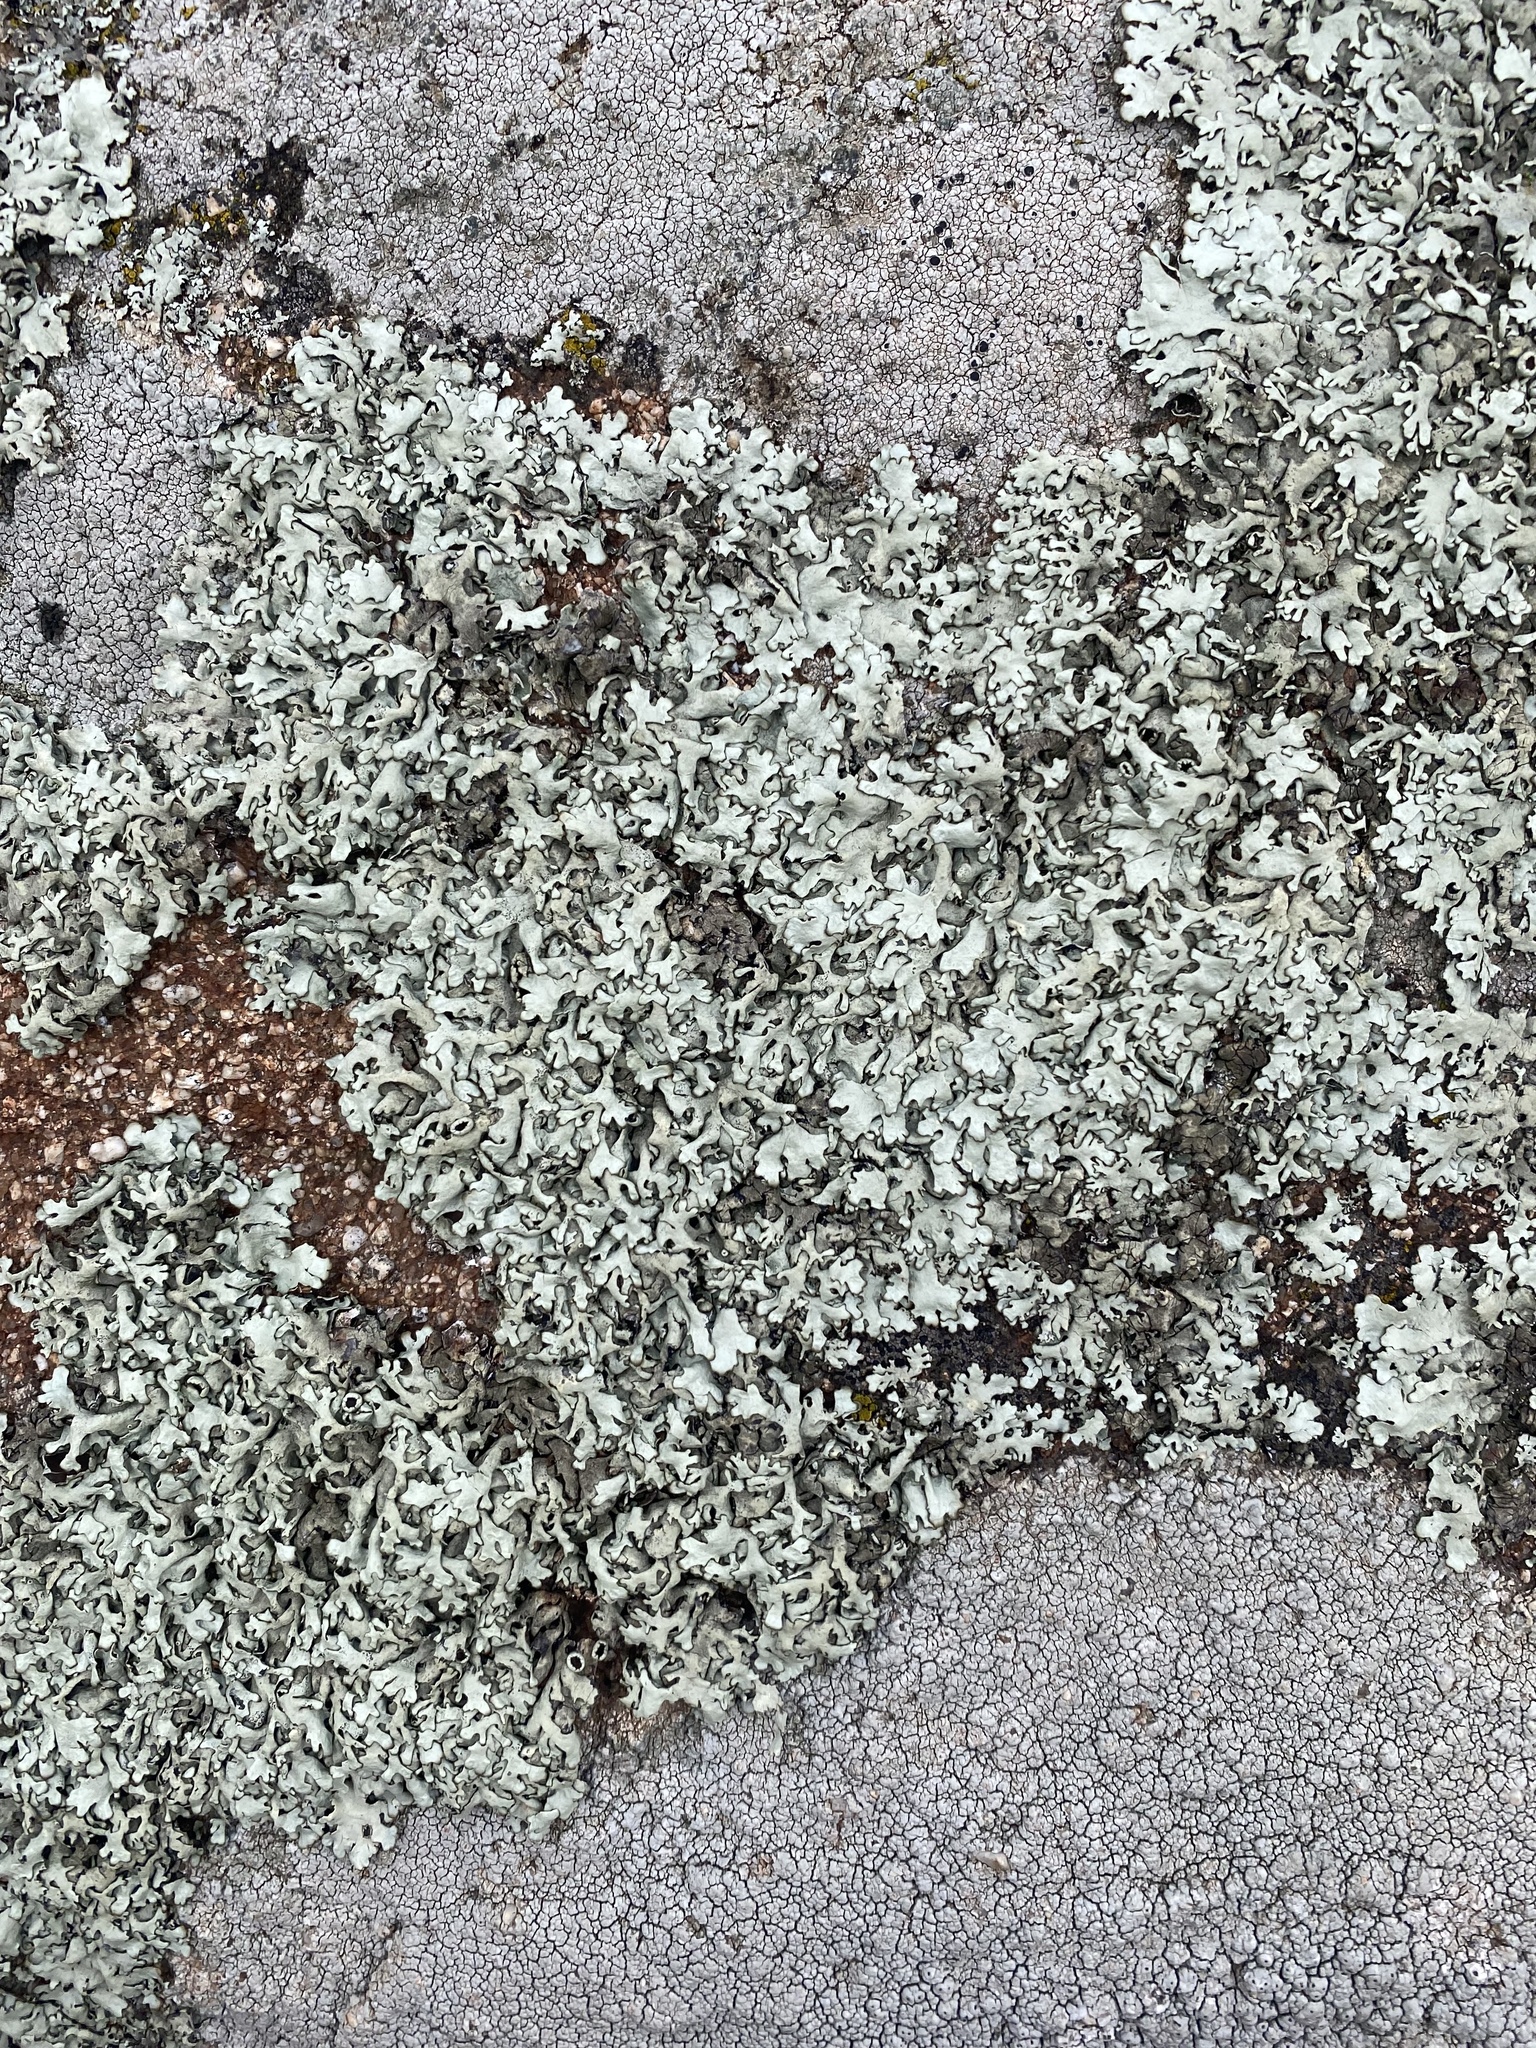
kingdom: Fungi
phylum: Ascomycota
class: Lecanoromycetes
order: Lecanorales
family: Parmeliaceae
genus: Xanthoparmelia
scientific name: Xanthoparmelia stenophylla
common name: Shingled rock shield
